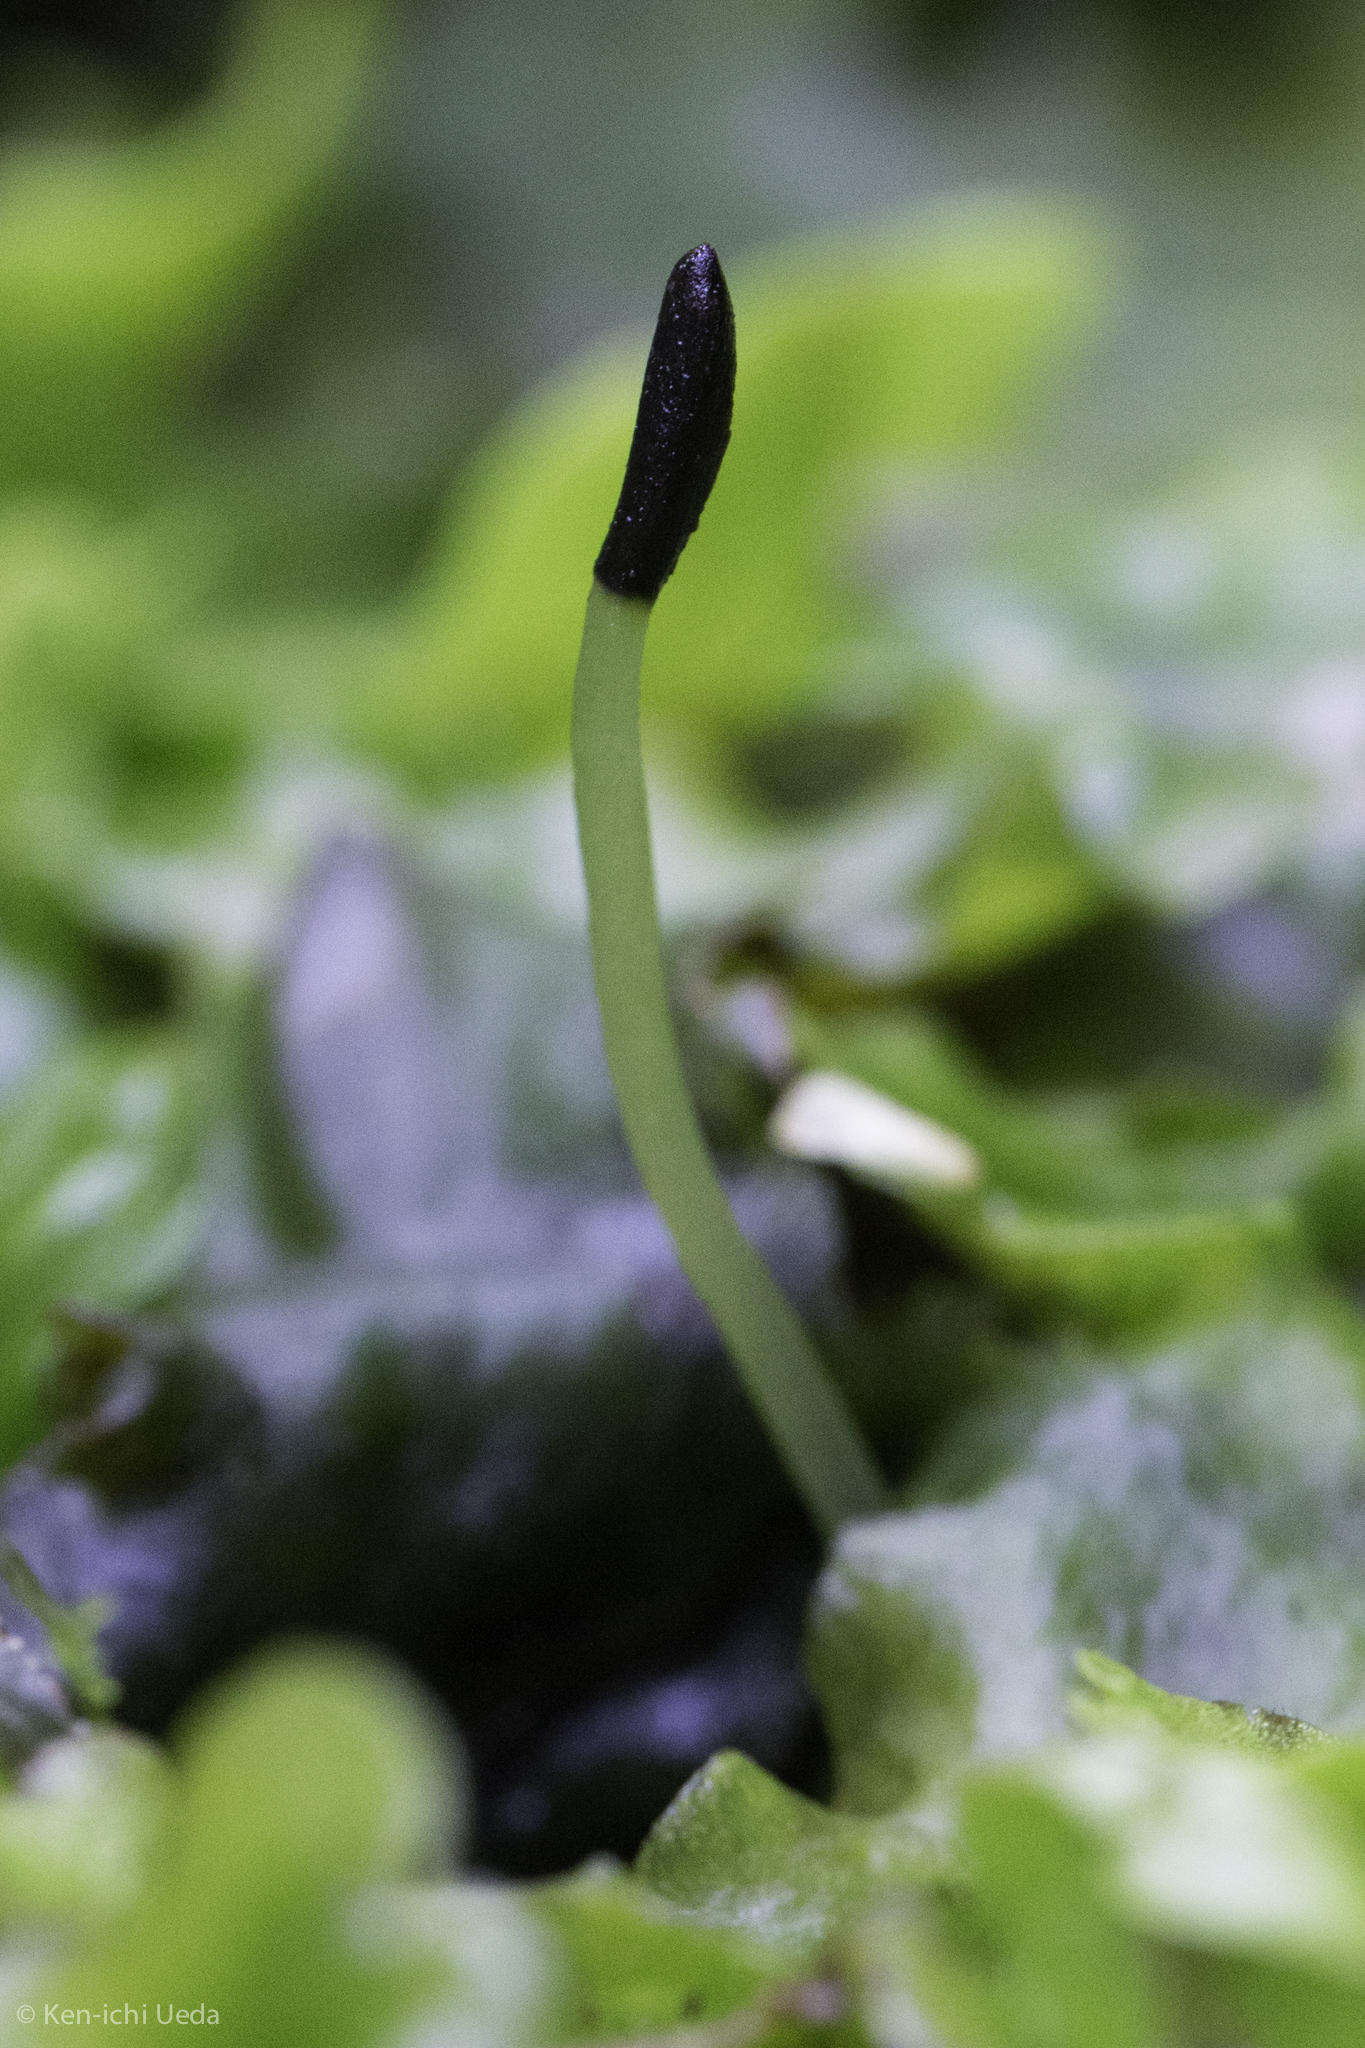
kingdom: Plantae
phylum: Marchantiophyta
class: Marchantiopsida
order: Marchantiales
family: Monocleaceae
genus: Monoclea
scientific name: Monoclea gottschei
